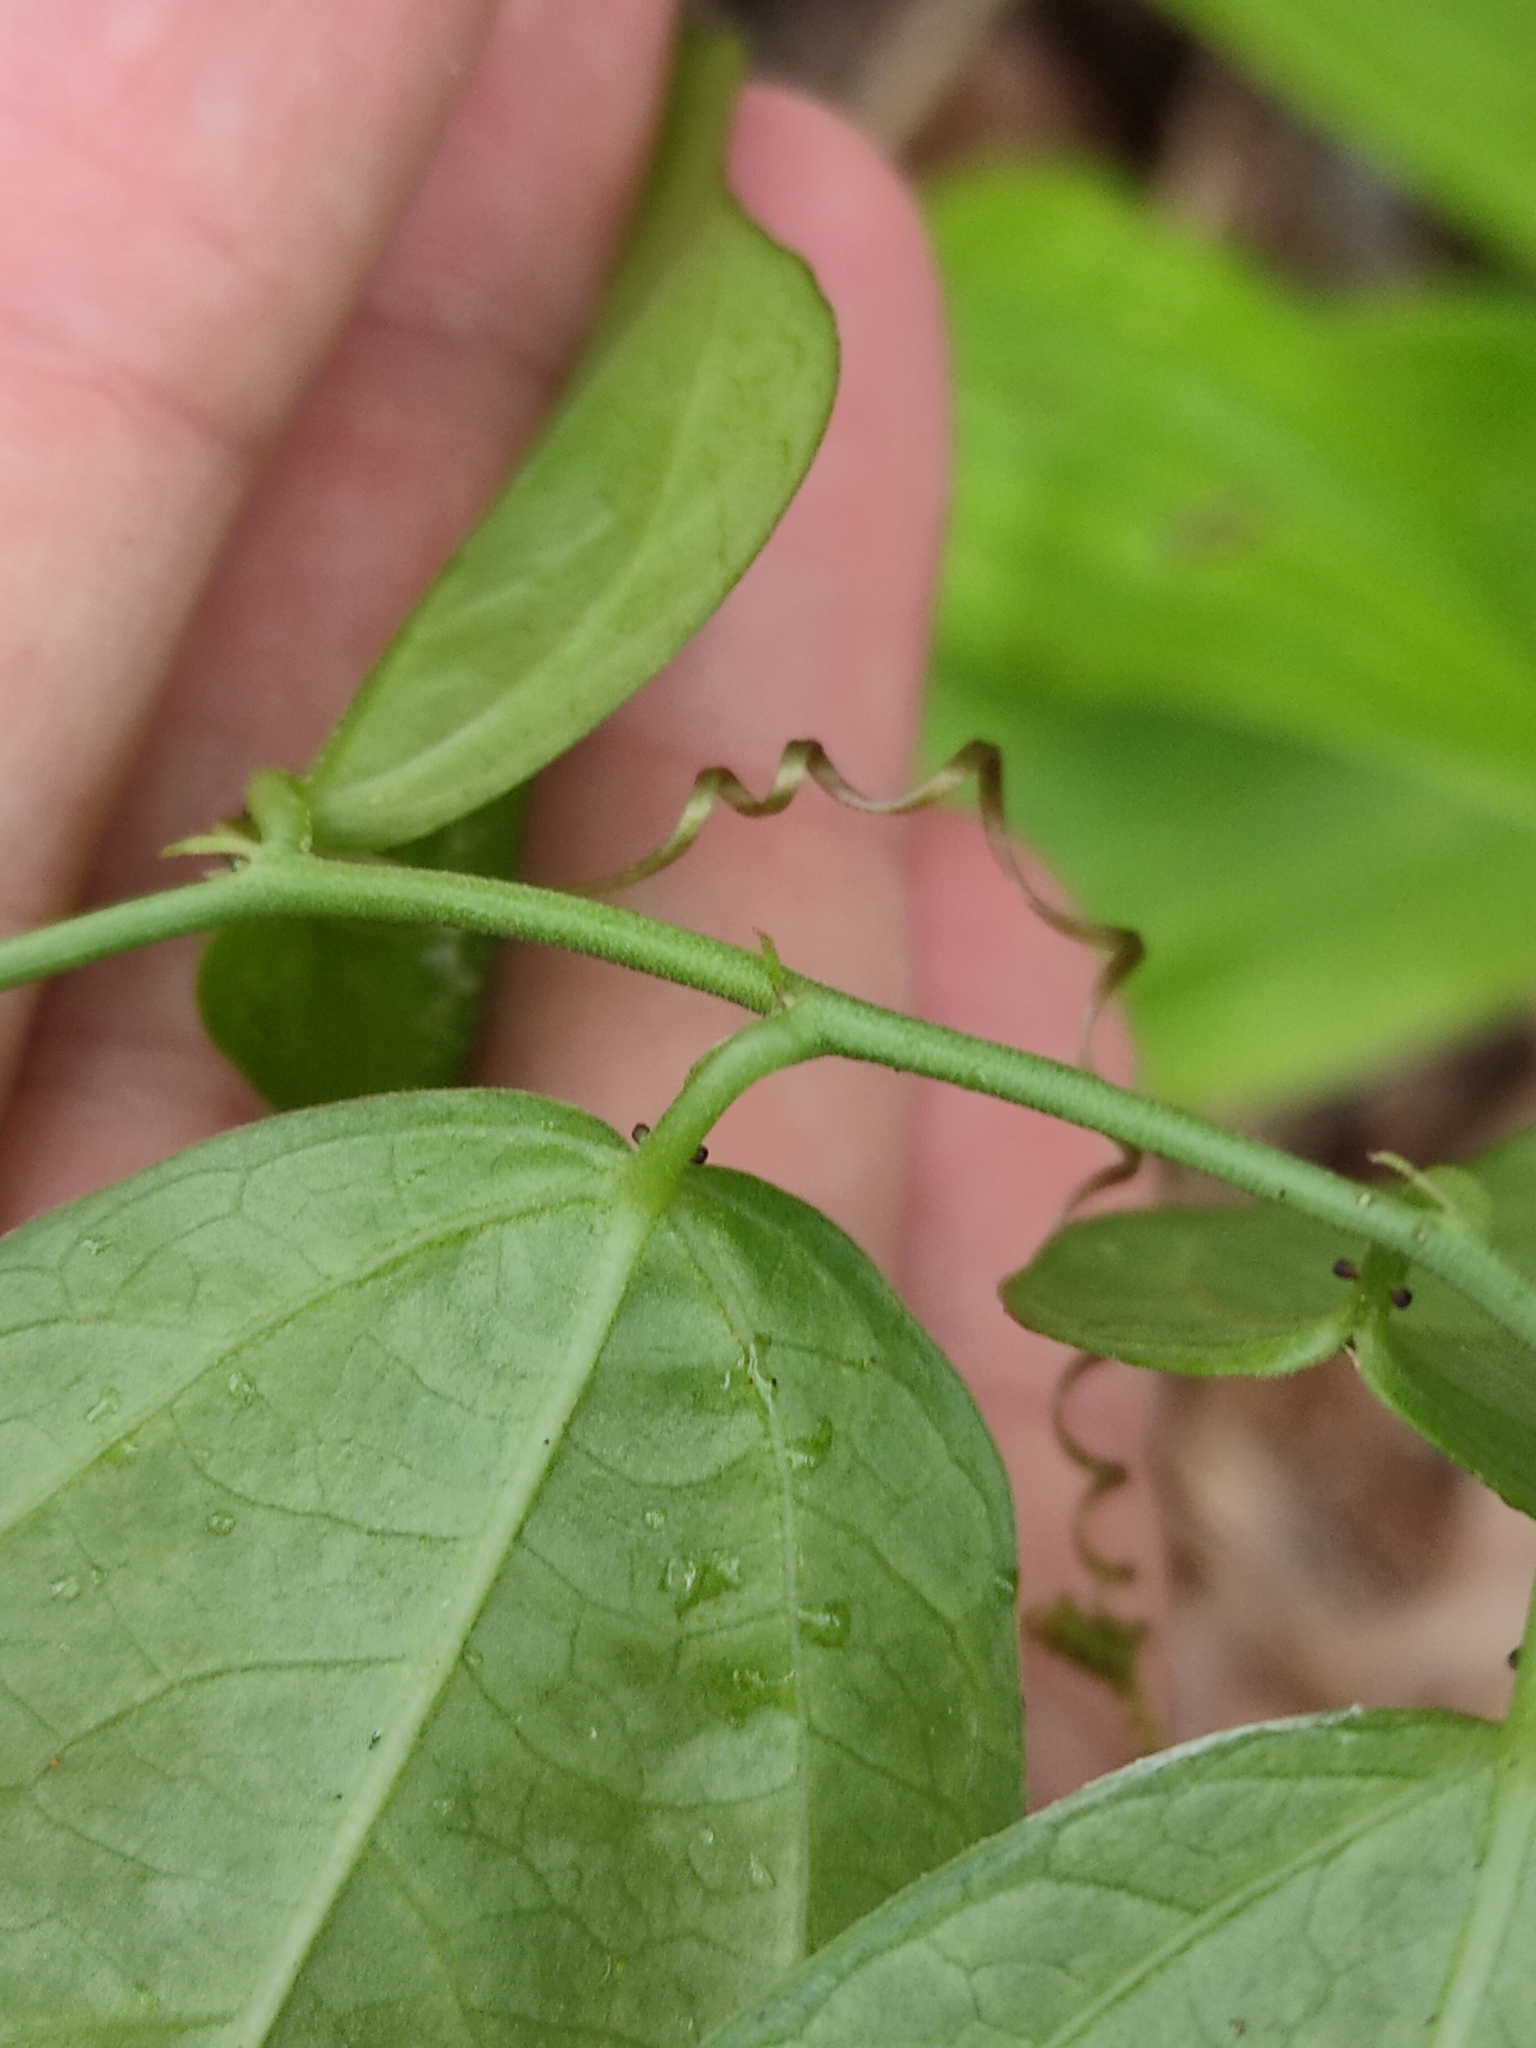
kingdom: Plantae
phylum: Tracheophyta
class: Magnoliopsida
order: Malpighiales
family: Passifloraceae
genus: Passiflora
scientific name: Passiflora pallida
